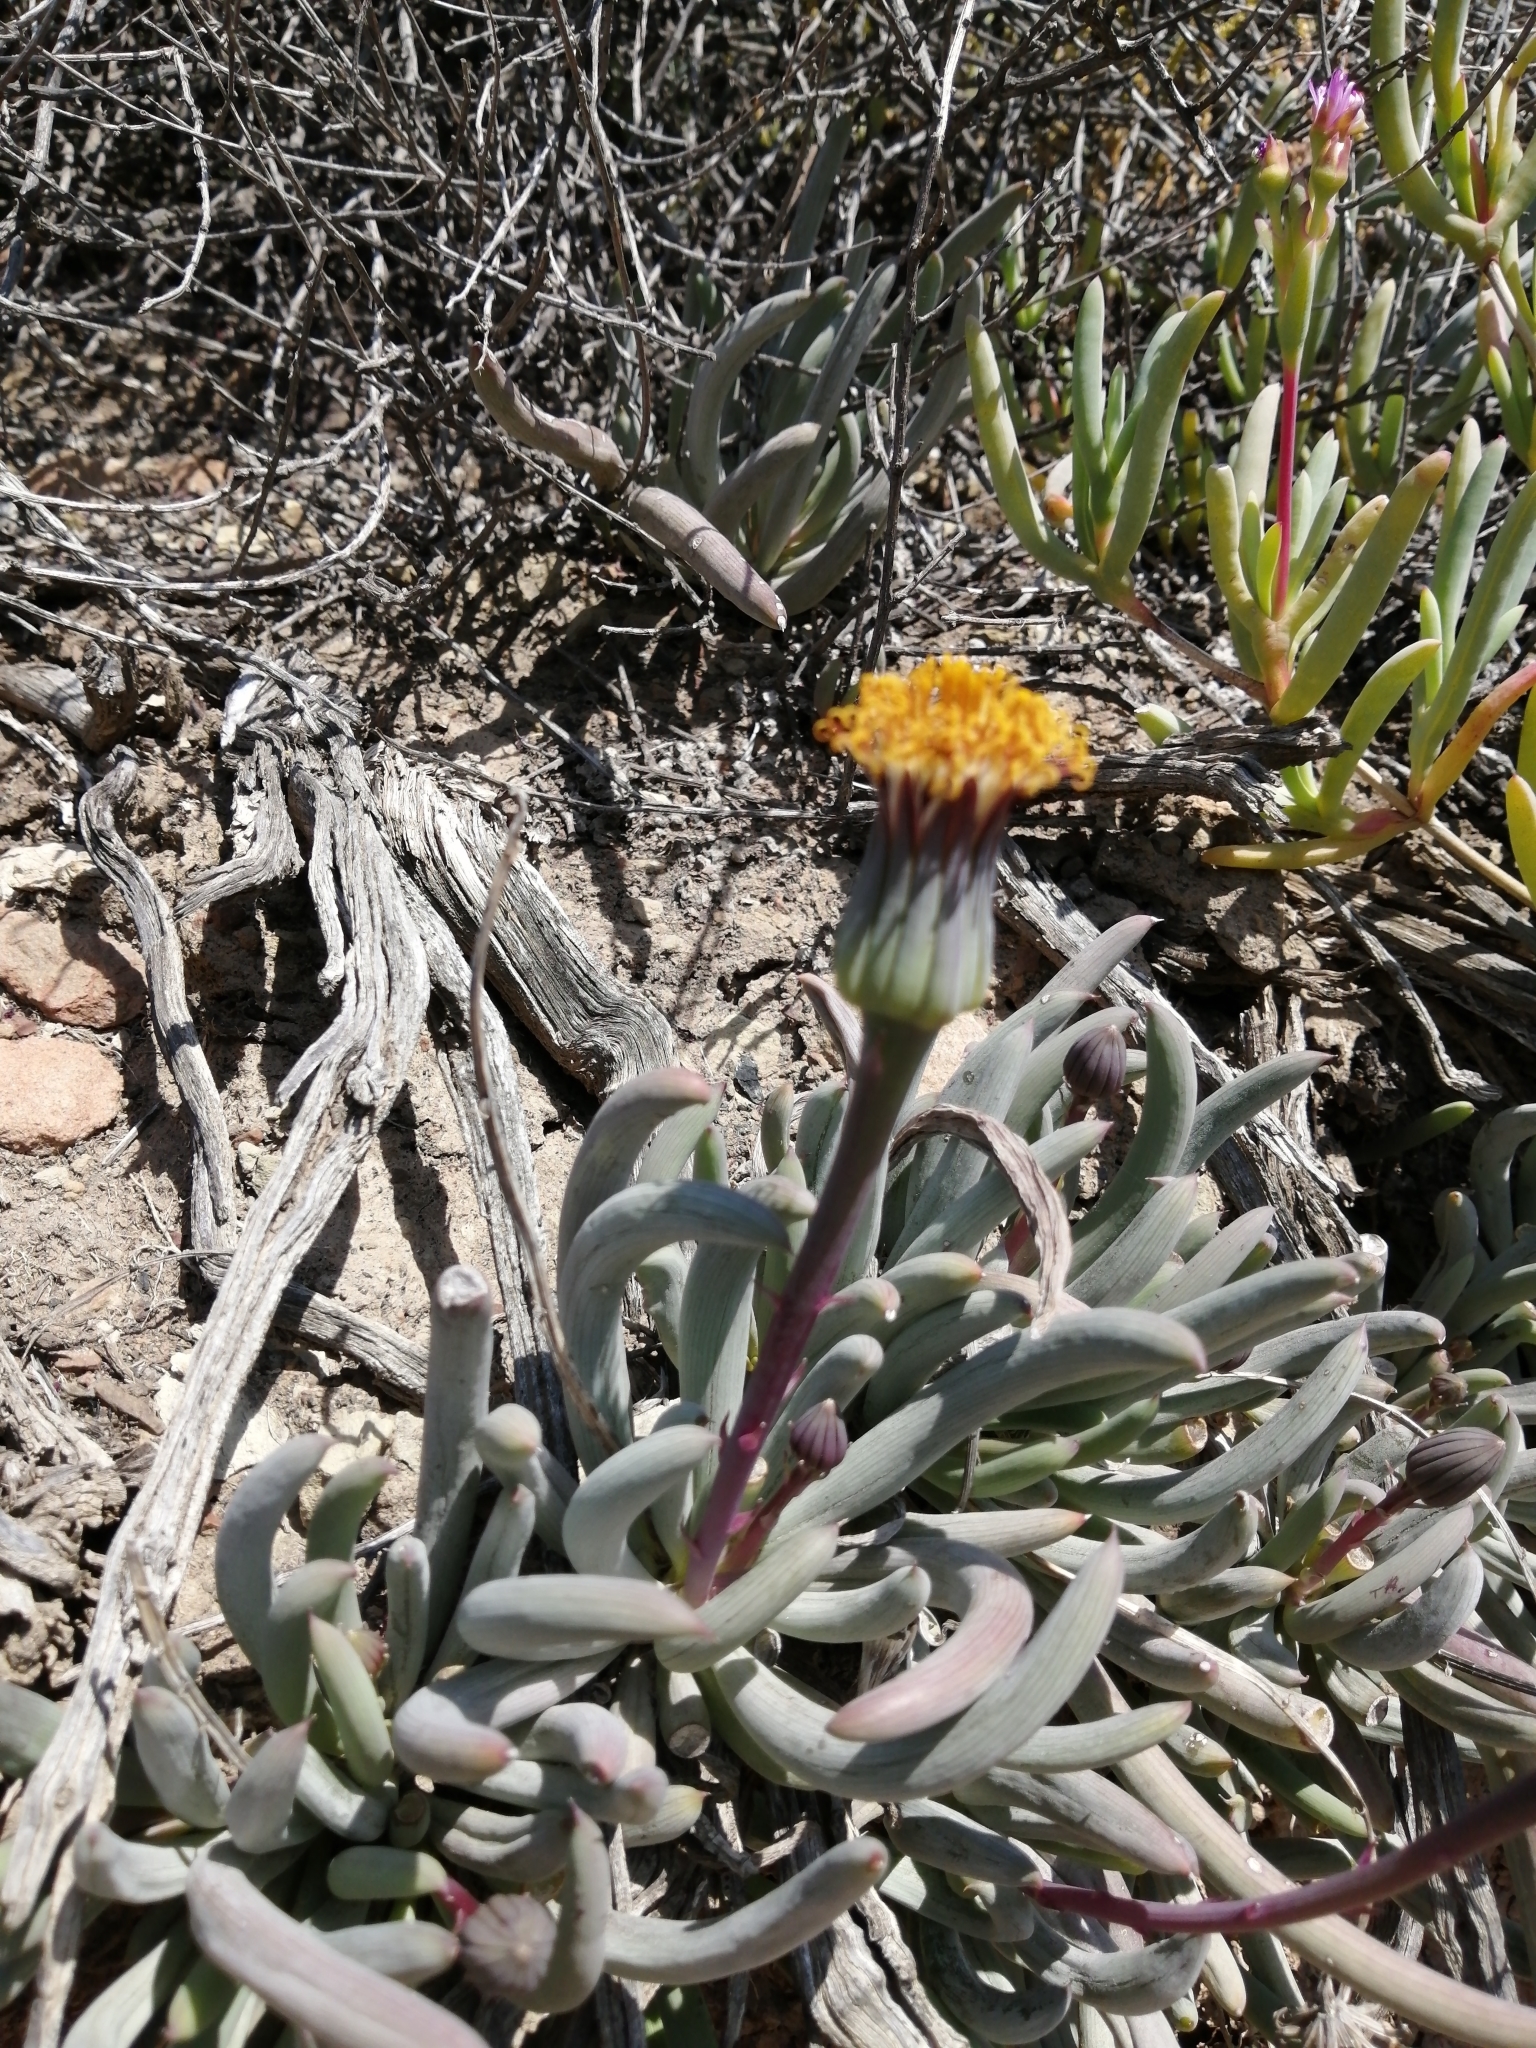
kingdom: Plantae
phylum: Tracheophyta
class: Magnoliopsida
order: Asterales
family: Asteraceae
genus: Curio
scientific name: Curio acaulis
